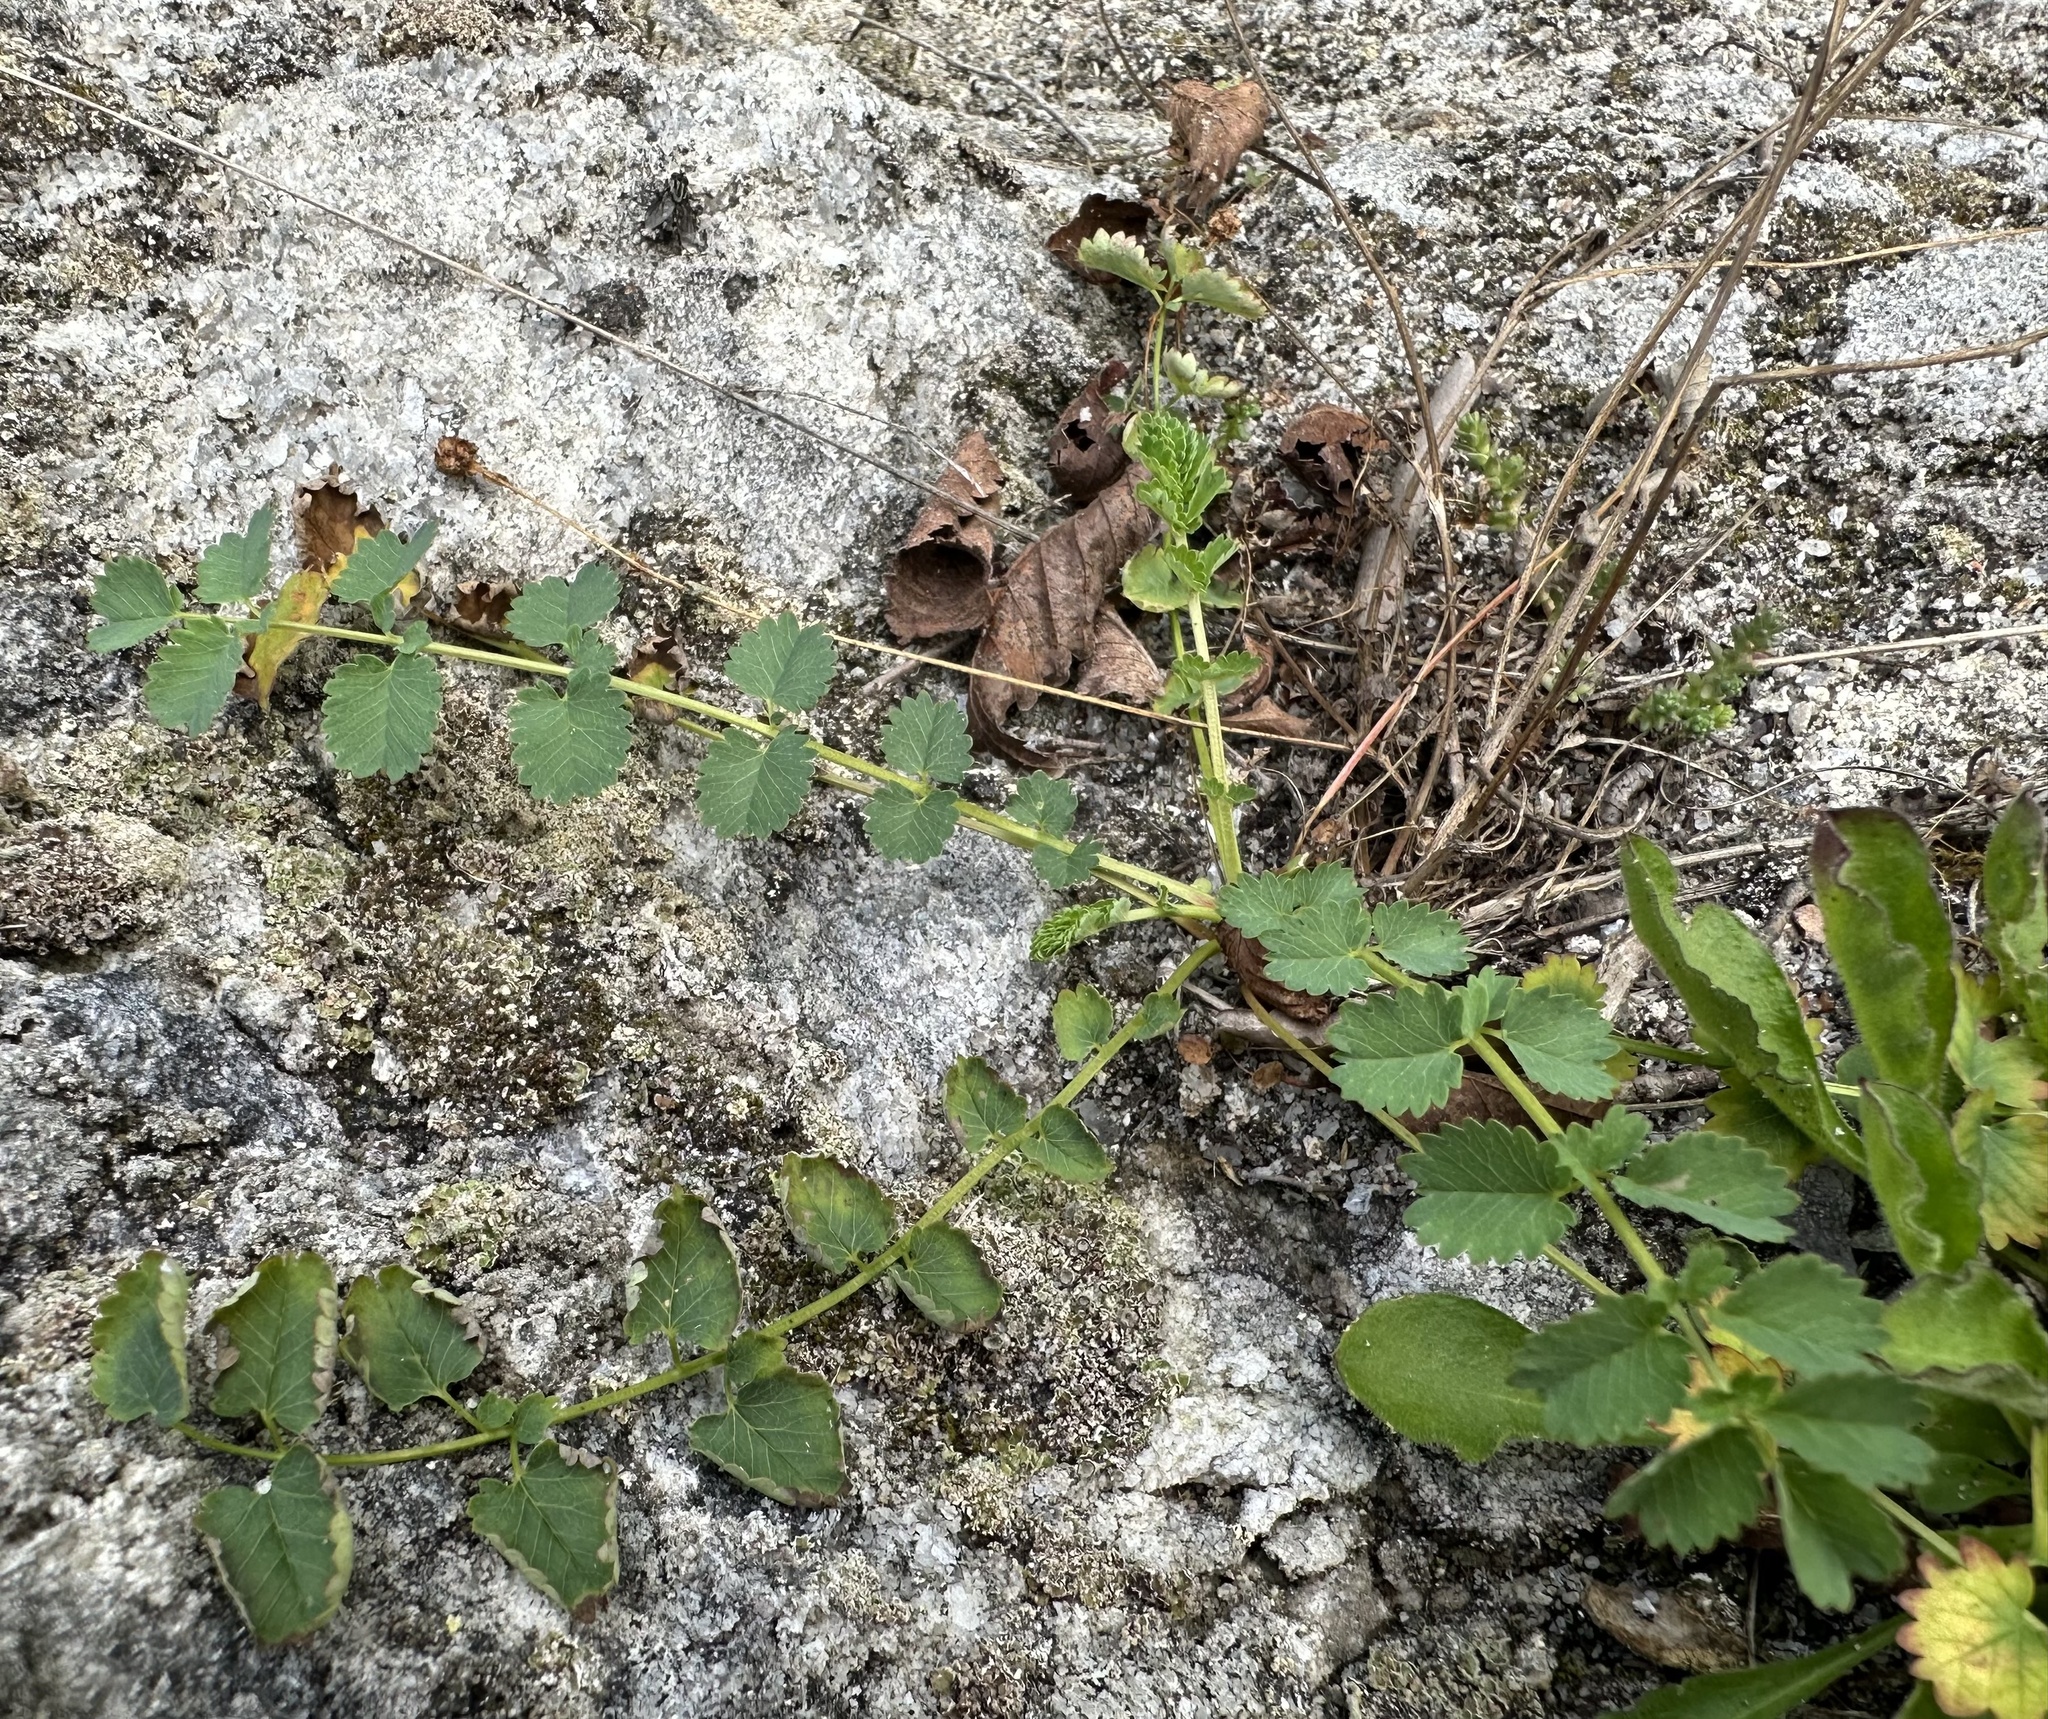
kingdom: Plantae
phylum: Tracheophyta
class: Magnoliopsida
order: Rosales
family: Rosaceae
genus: Poterium
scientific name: Poterium sanguisorba
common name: Salad burnet
